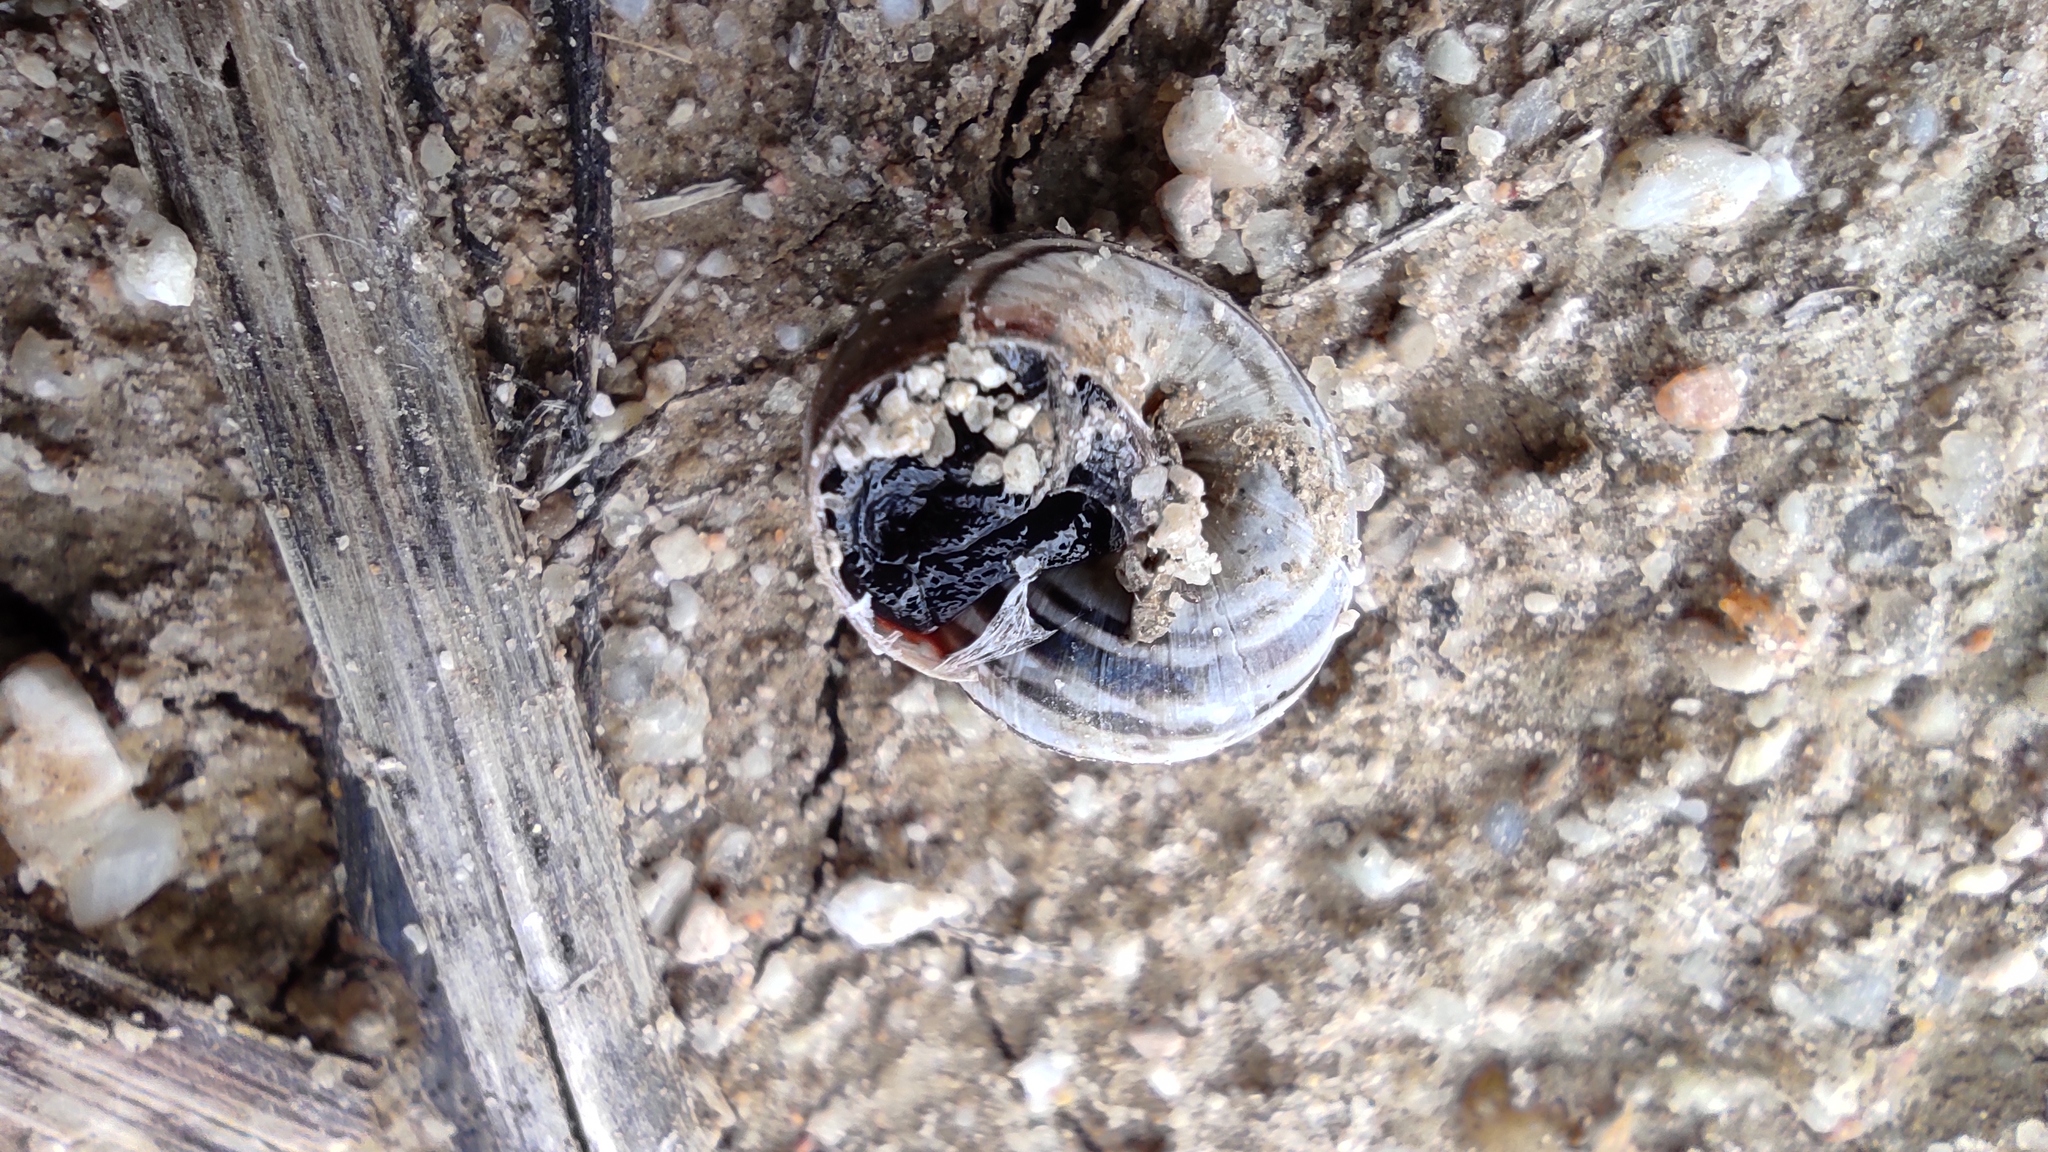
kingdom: Animalia
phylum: Mollusca
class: Gastropoda
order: Stylommatophora
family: Geomitridae
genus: Cernuella
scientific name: Cernuella virgata
